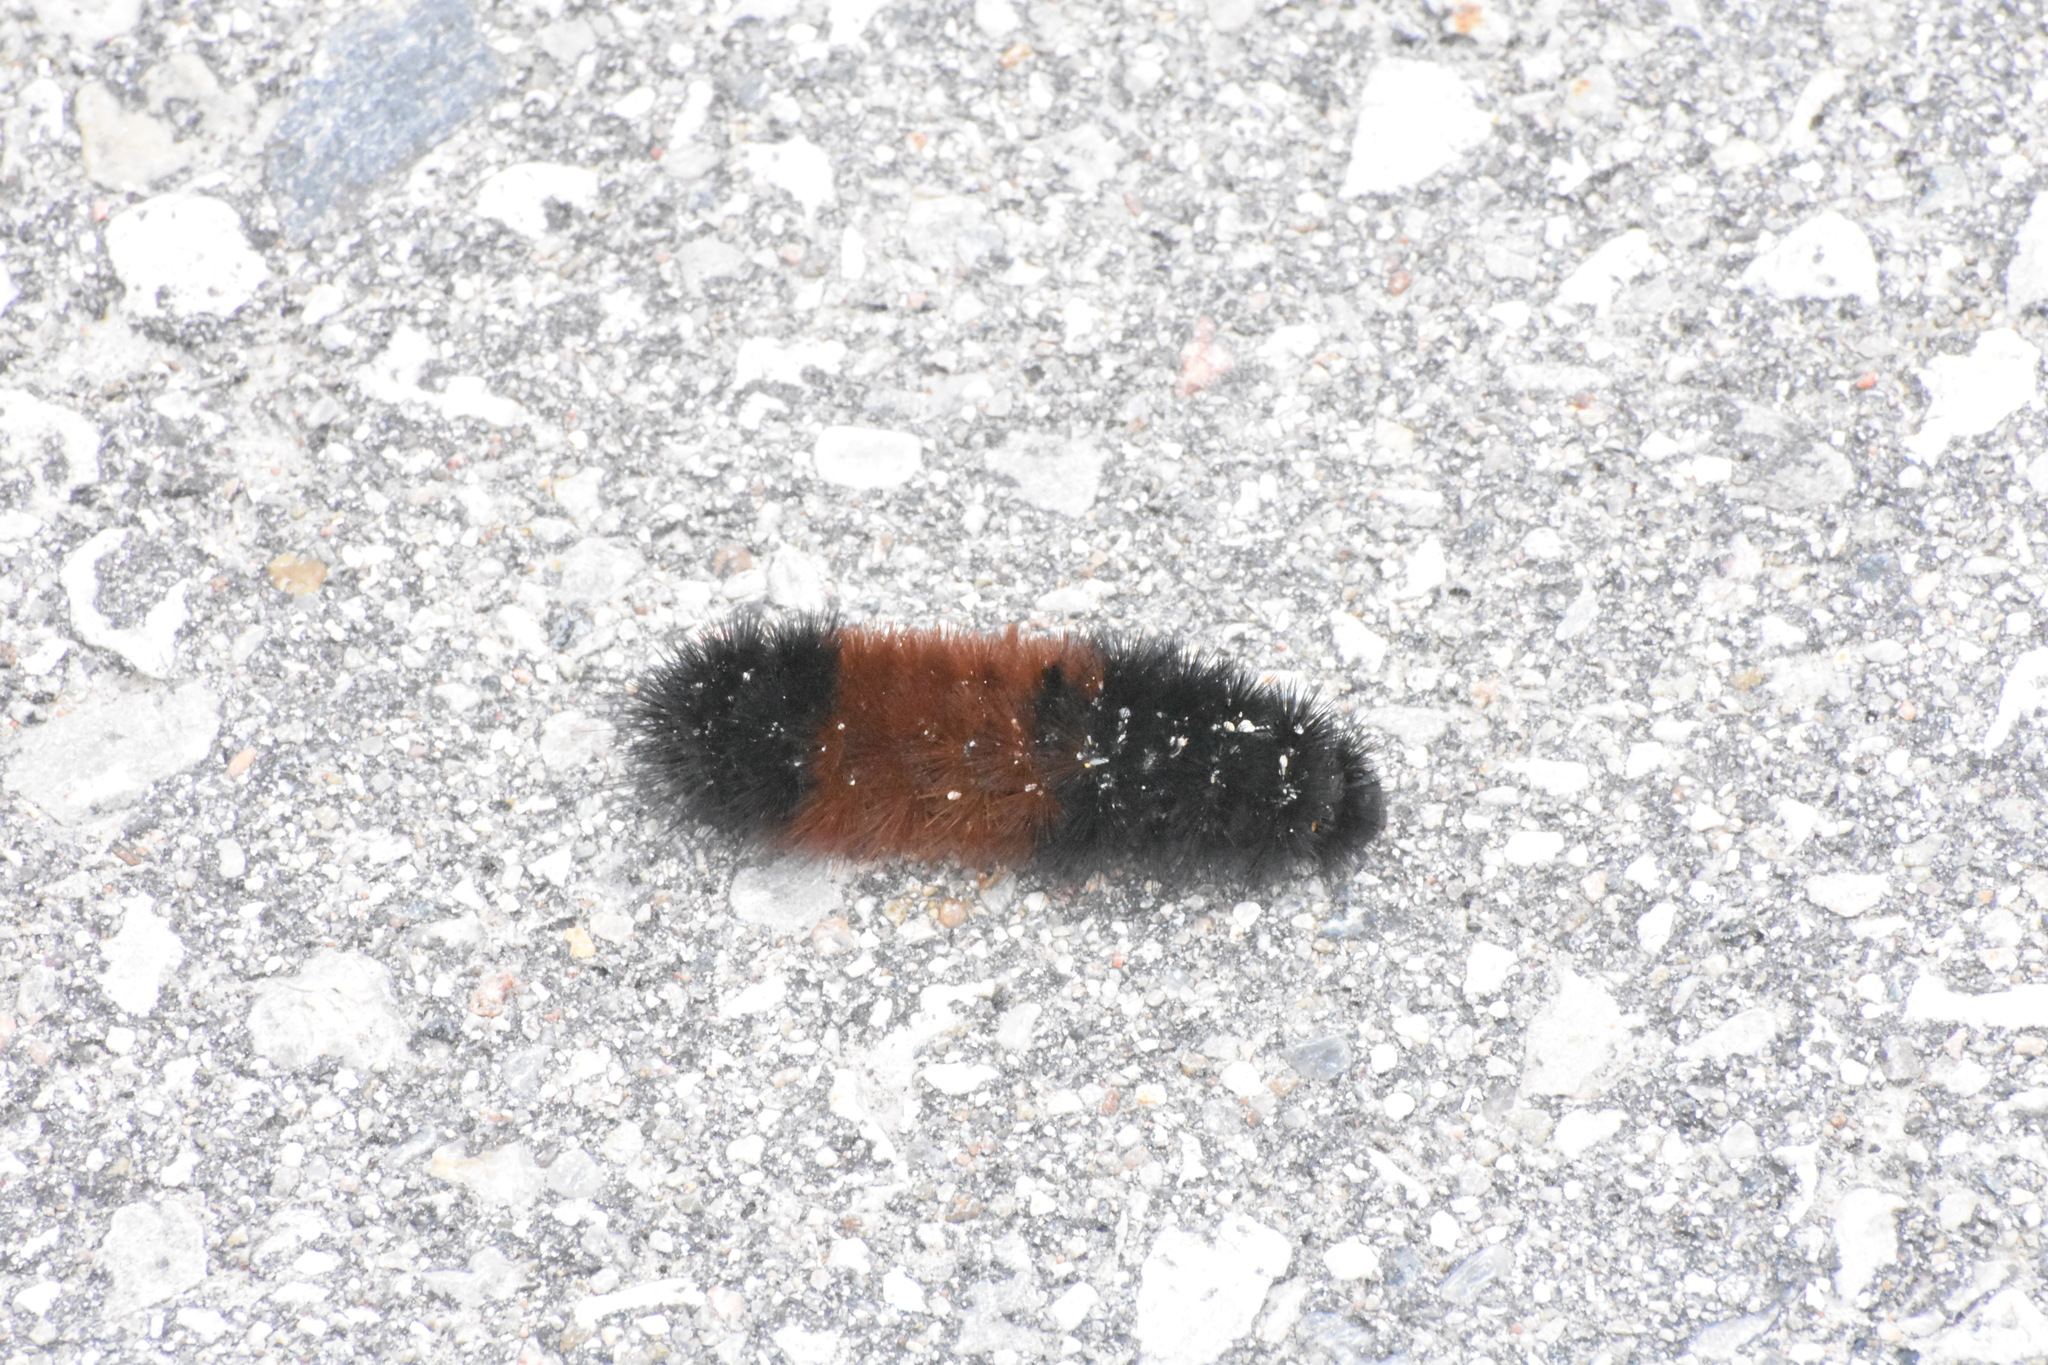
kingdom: Animalia
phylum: Arthropoda
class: Insecta
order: Lepidoptera
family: Erebidae
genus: Pyrrharctia
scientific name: Pyrrharctia isabella
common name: Isabella tiger moth
